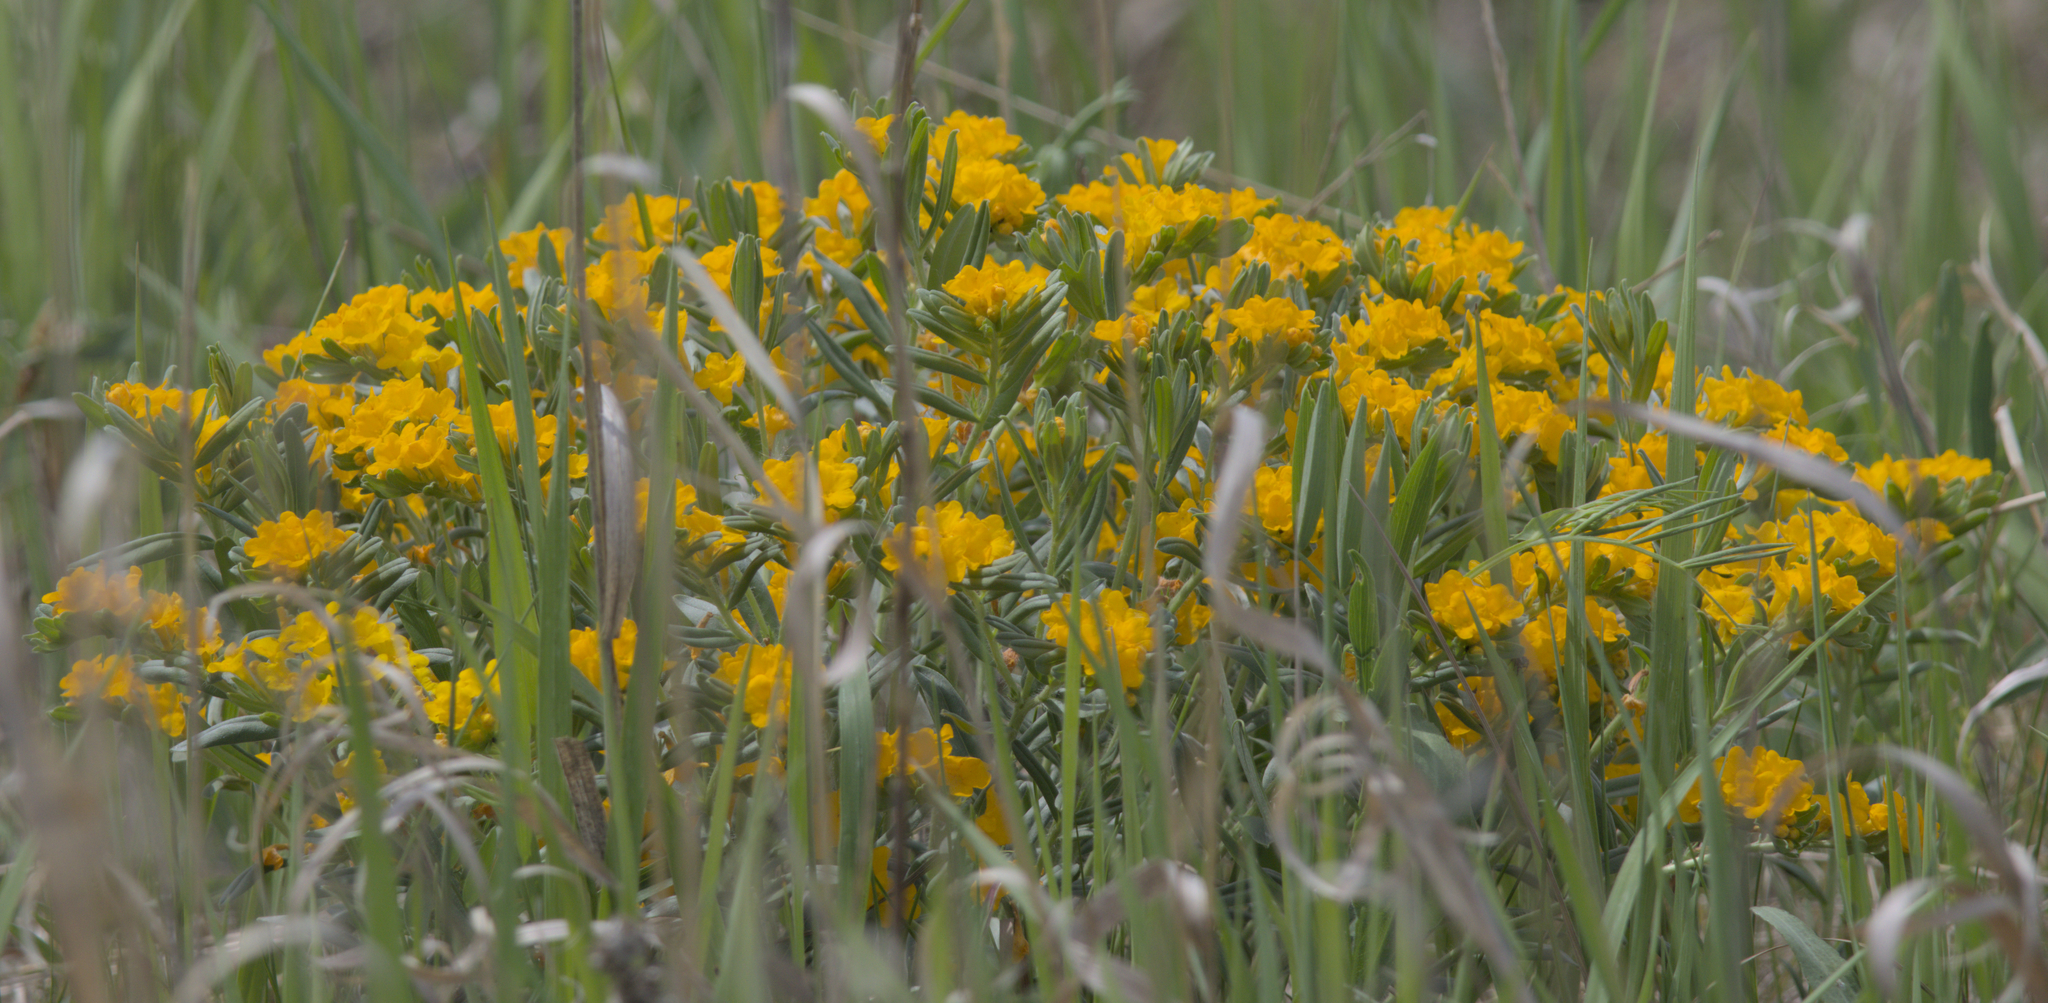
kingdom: Plantae
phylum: Tracheophyta
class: Magnoliopsida
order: Boraginales
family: Boraginaceae
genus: Lithospermum
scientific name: Lithospermum canescens
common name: Hoary puccoon
